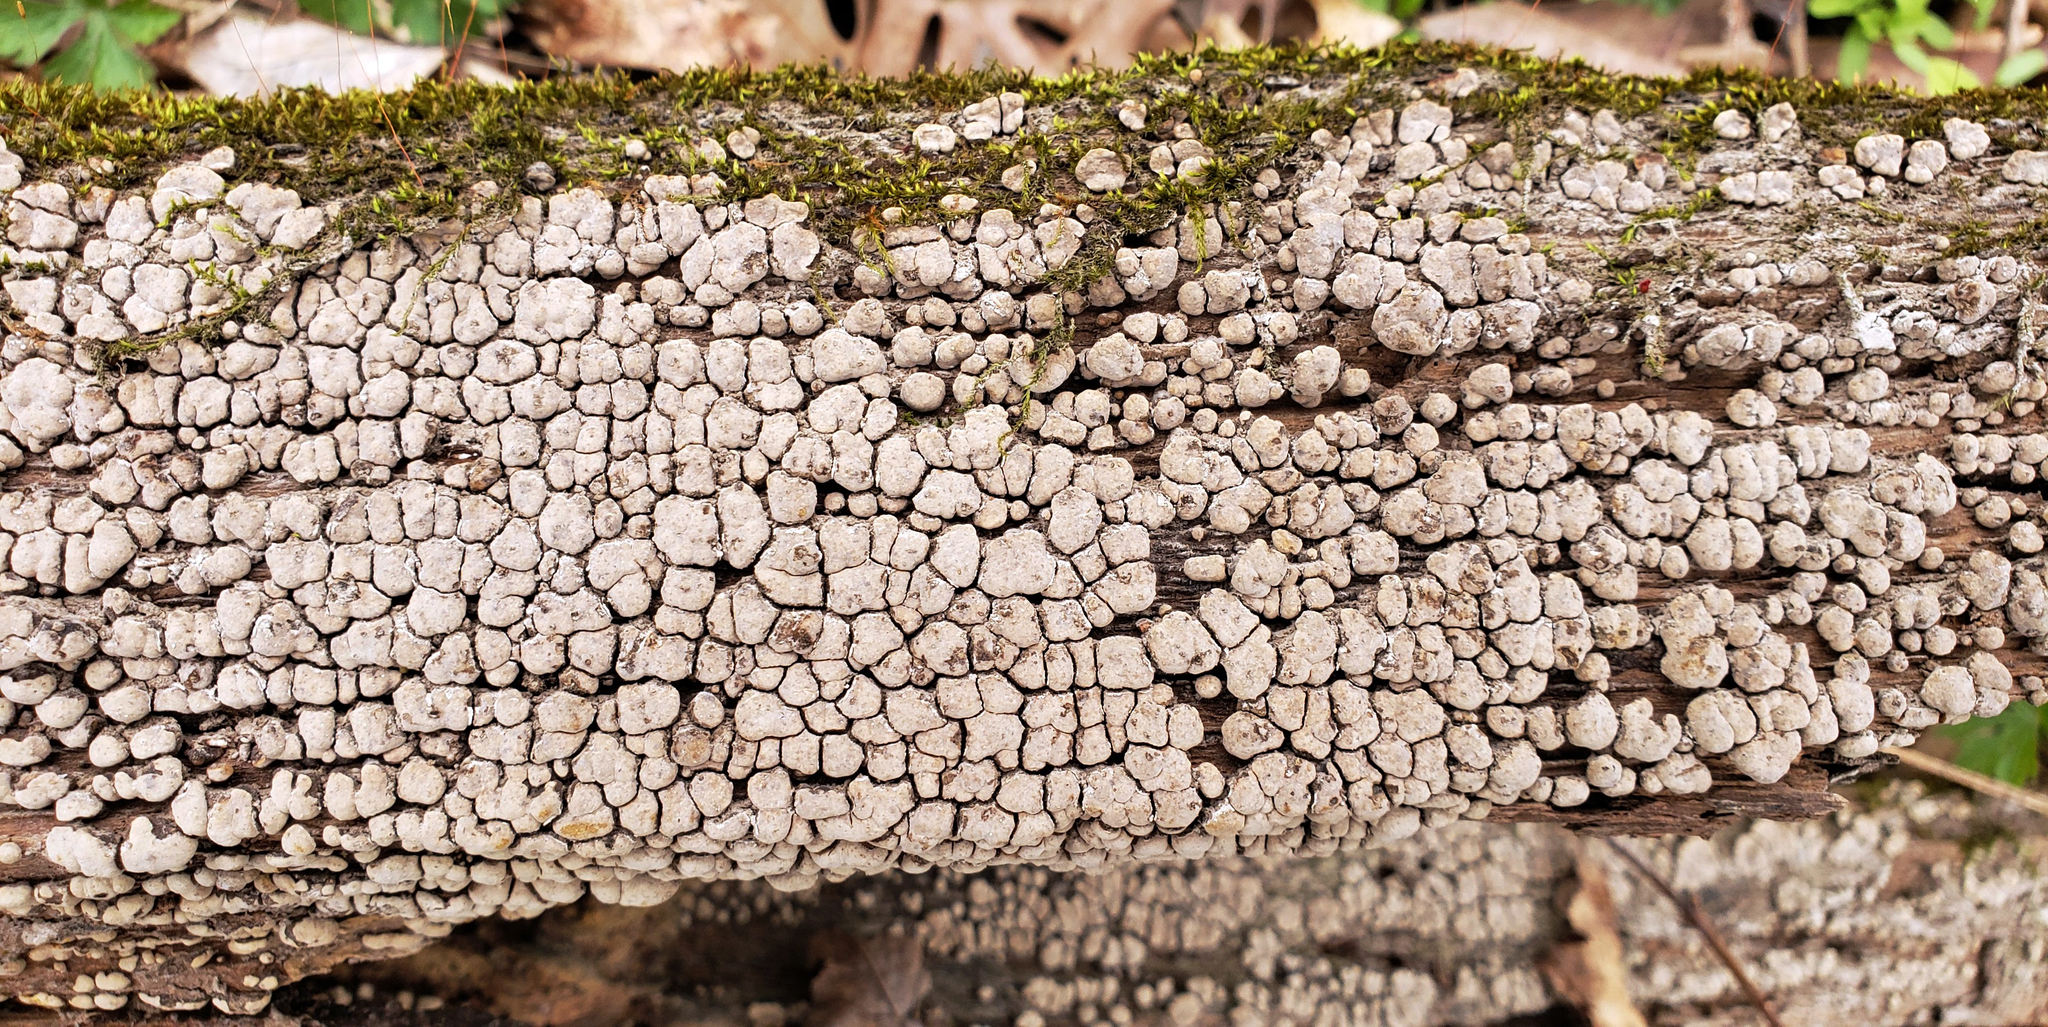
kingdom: Fungi
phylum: Basidiomycota
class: Agaricomycetes
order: Russulales
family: Stereaceae
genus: Xylobolus
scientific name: Xylobolus frustulatus
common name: Ceramic parchment
